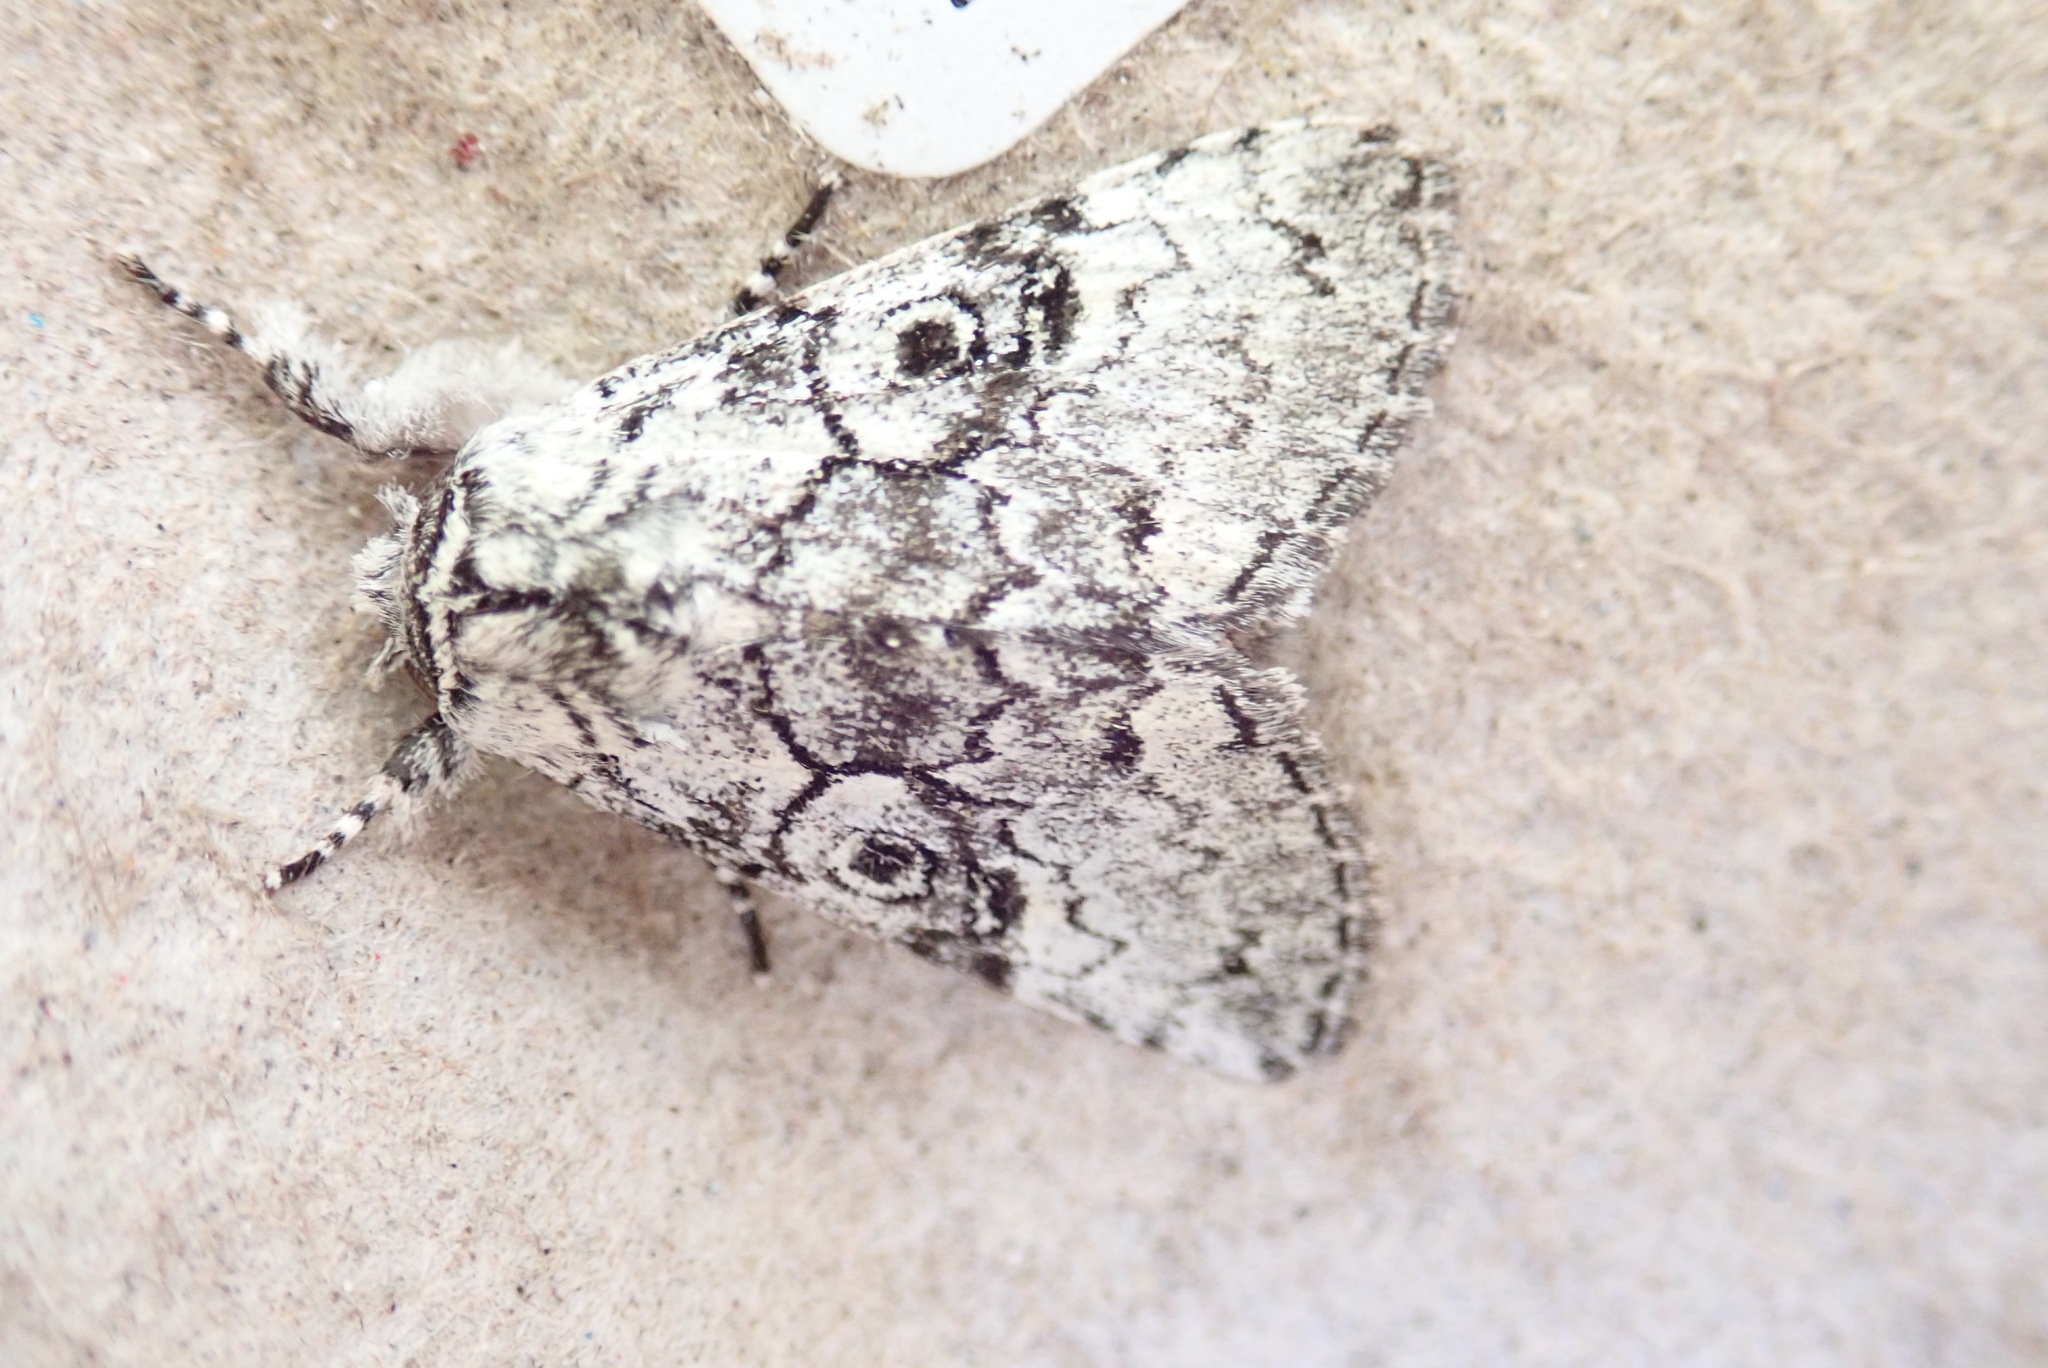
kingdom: Animalia
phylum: Arthropoda
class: Insecta
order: Lepidoptera
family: Noctuidae
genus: Charadra
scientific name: Charadra deridens
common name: Marbled tuffet
